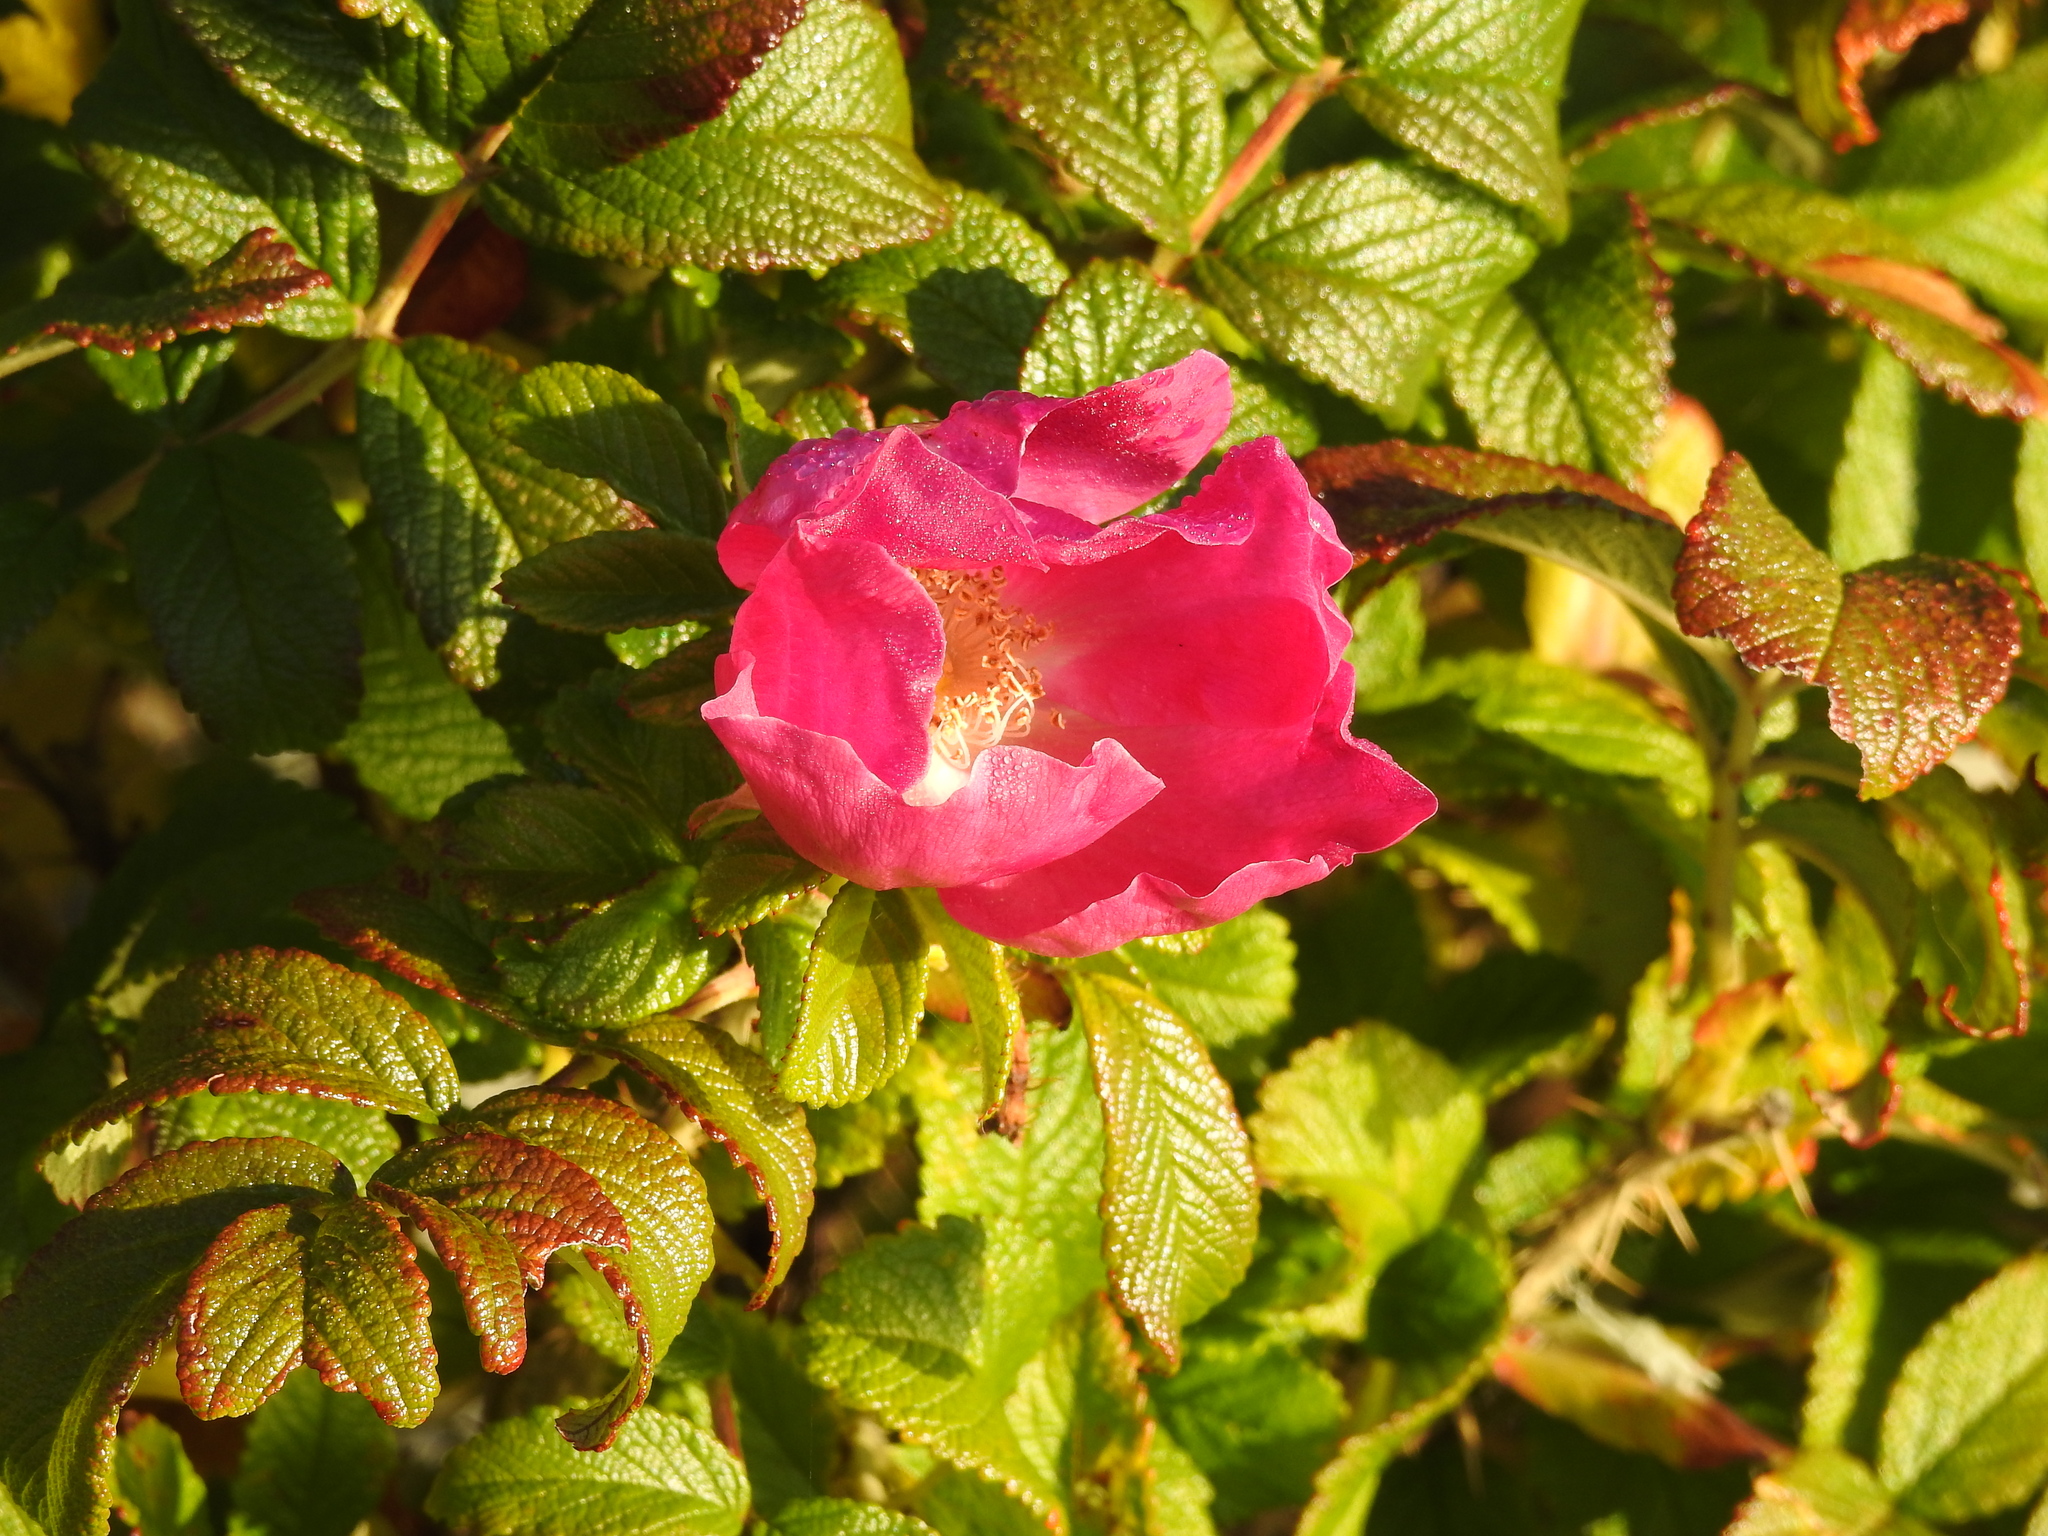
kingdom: Plantae
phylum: Tracheophyta
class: Magnoliopsida
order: Rosales
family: Rosaceae
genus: Rosa
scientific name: Rosa rugosa
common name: Japanese rose
